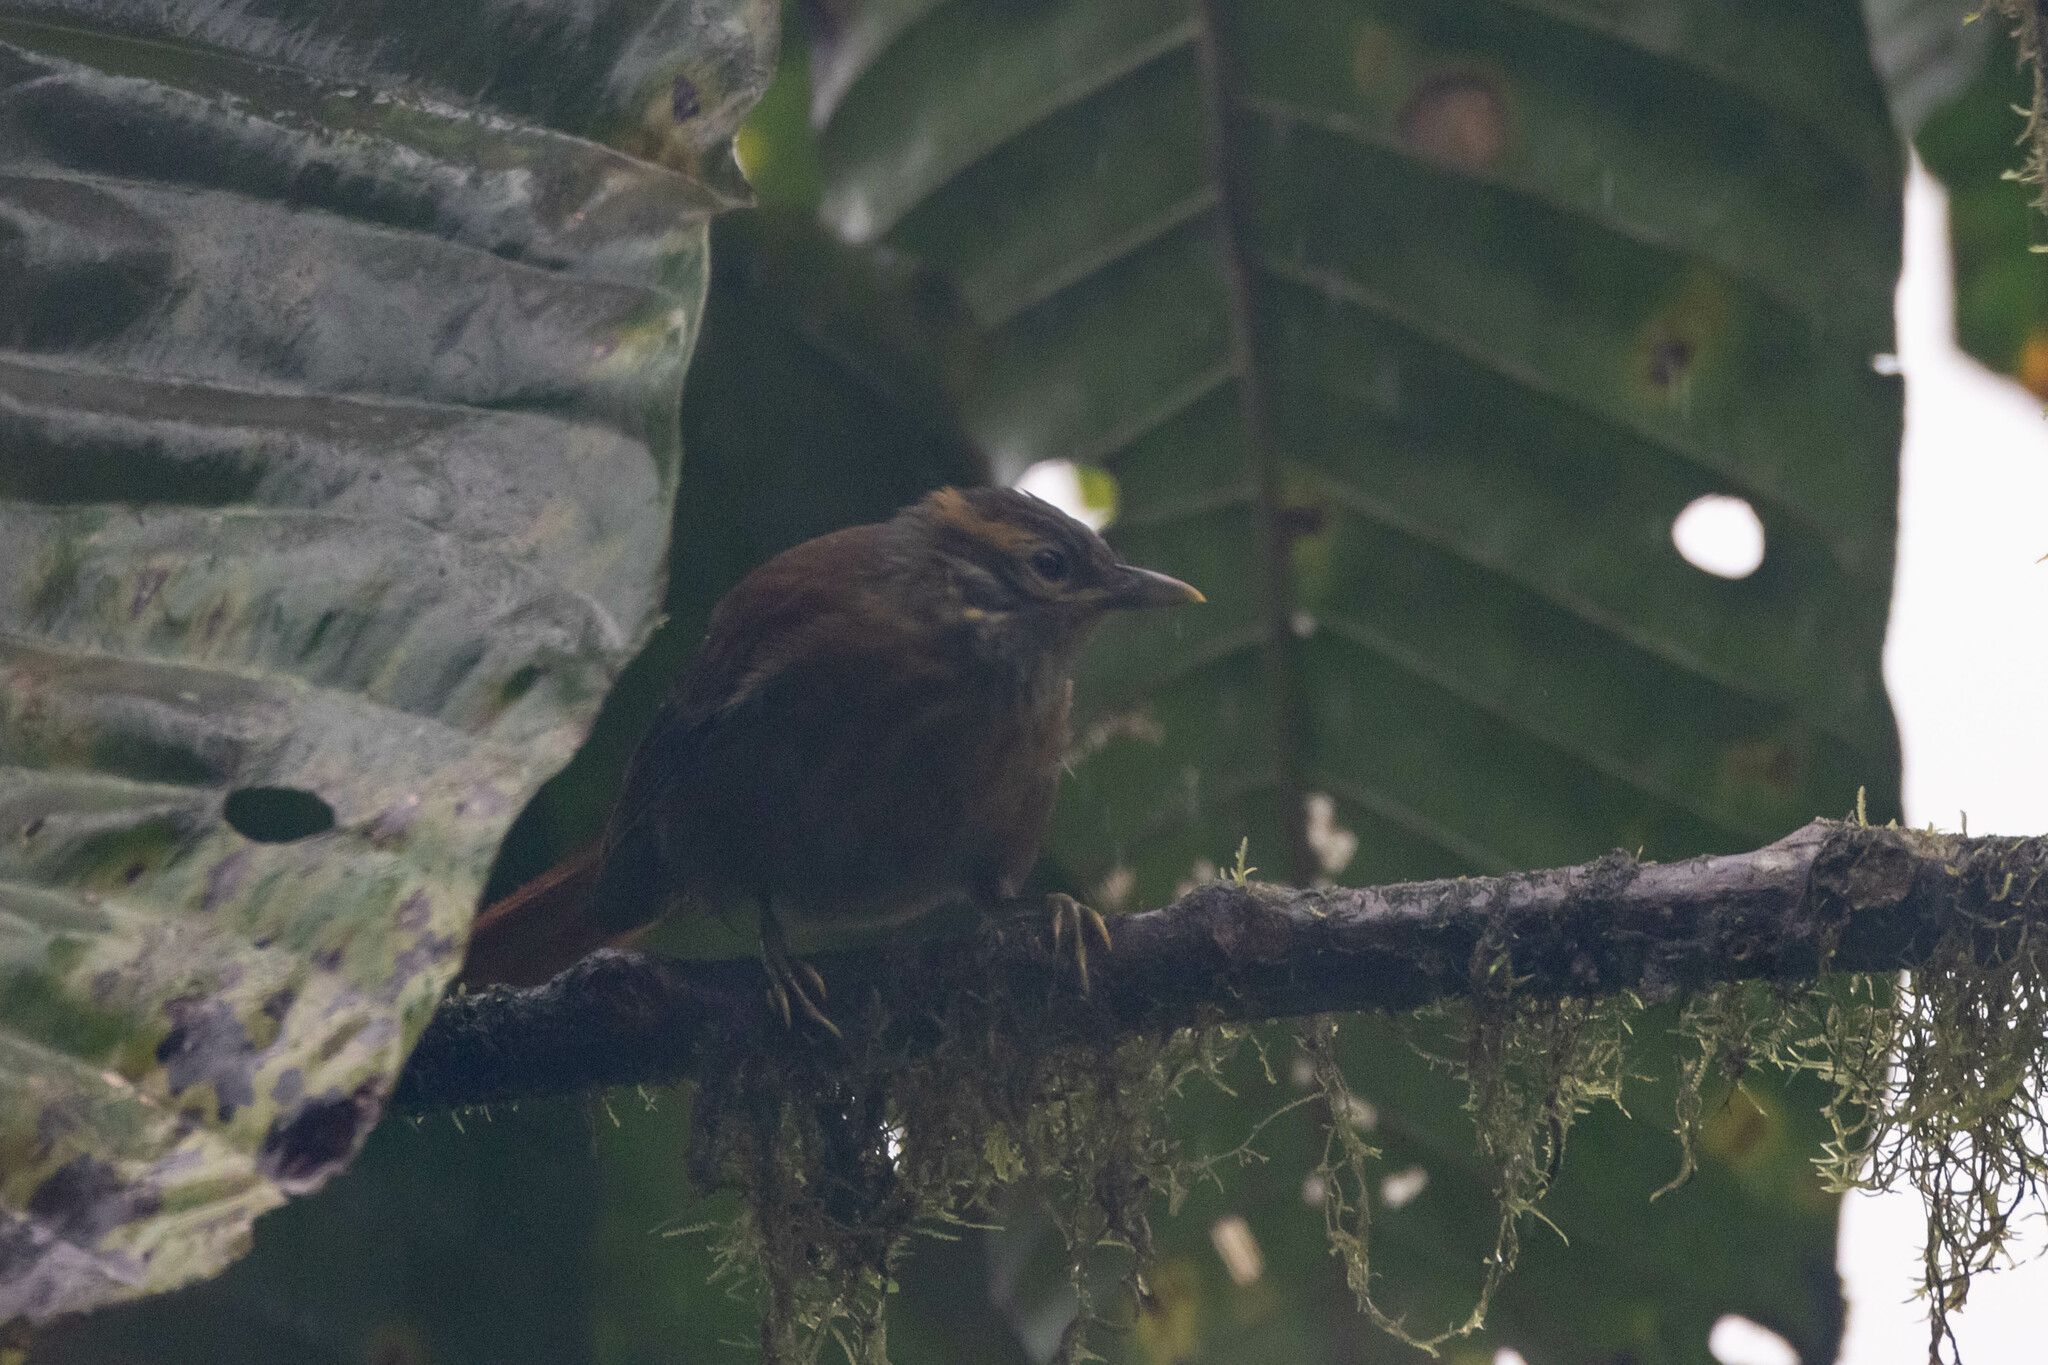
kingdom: Animalia
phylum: Chordata
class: Aves
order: Passeriformes
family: Furnariidae
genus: Anabacerthia
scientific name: Anabacerthia variegaticeps
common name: Scaly-throated foliage-gleaner
